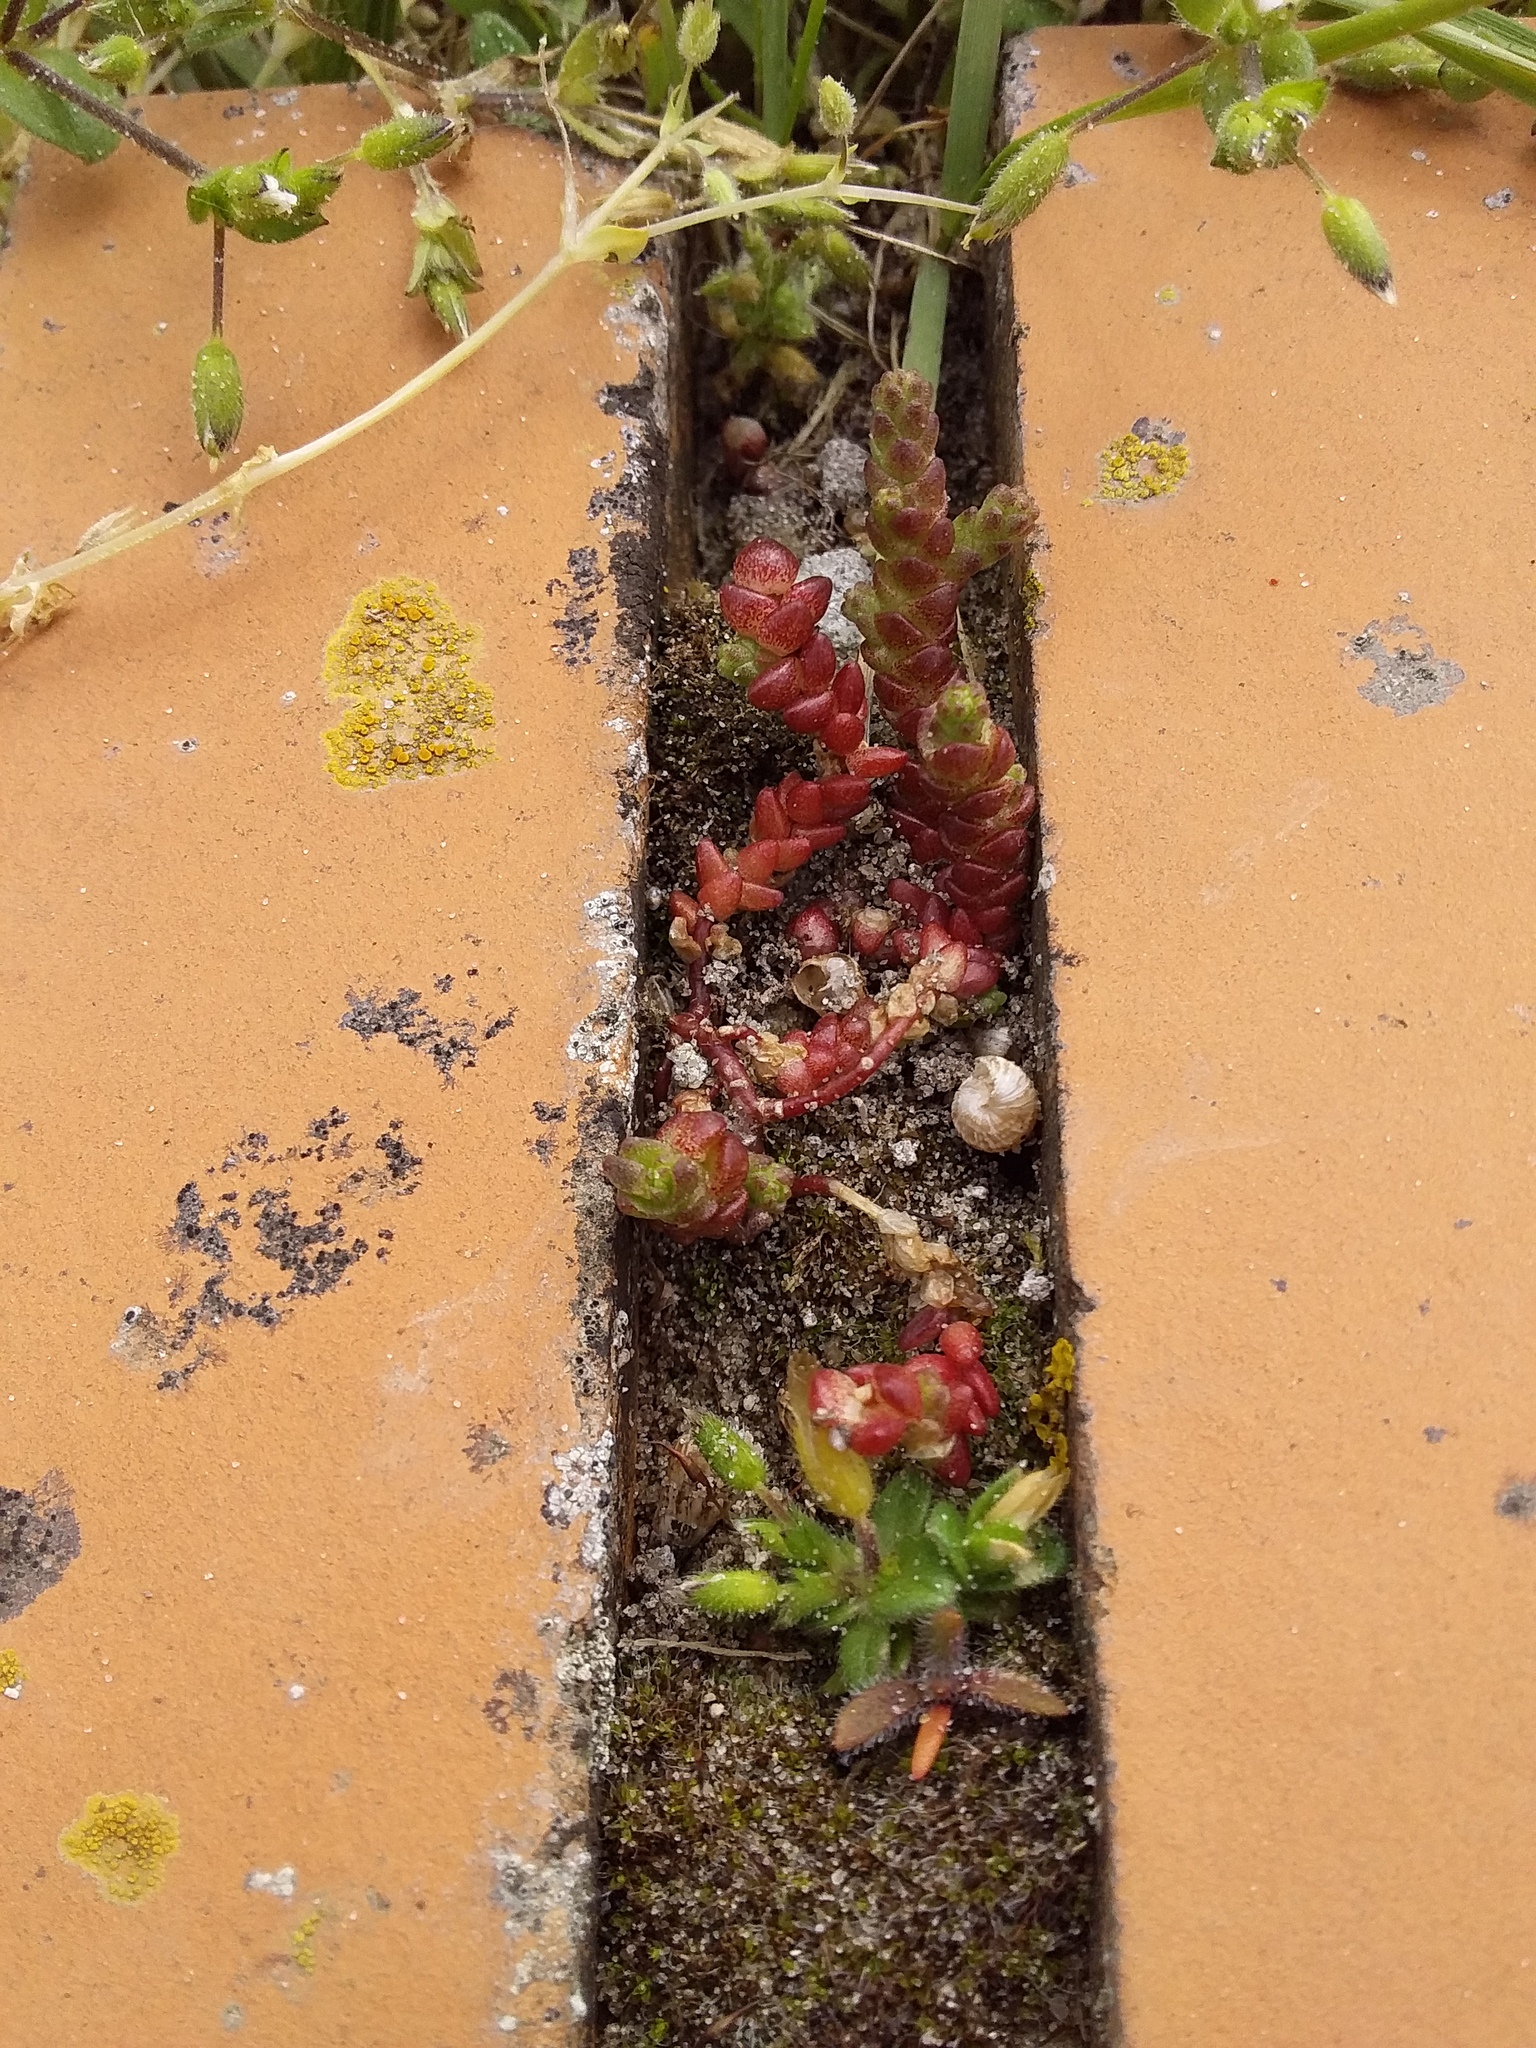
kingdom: Plantae
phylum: Tracheophyta
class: Magnoliopsida
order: Saxifragales
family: Crassulaceae
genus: Sedum
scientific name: Sedum acre
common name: Biting stonecrop
